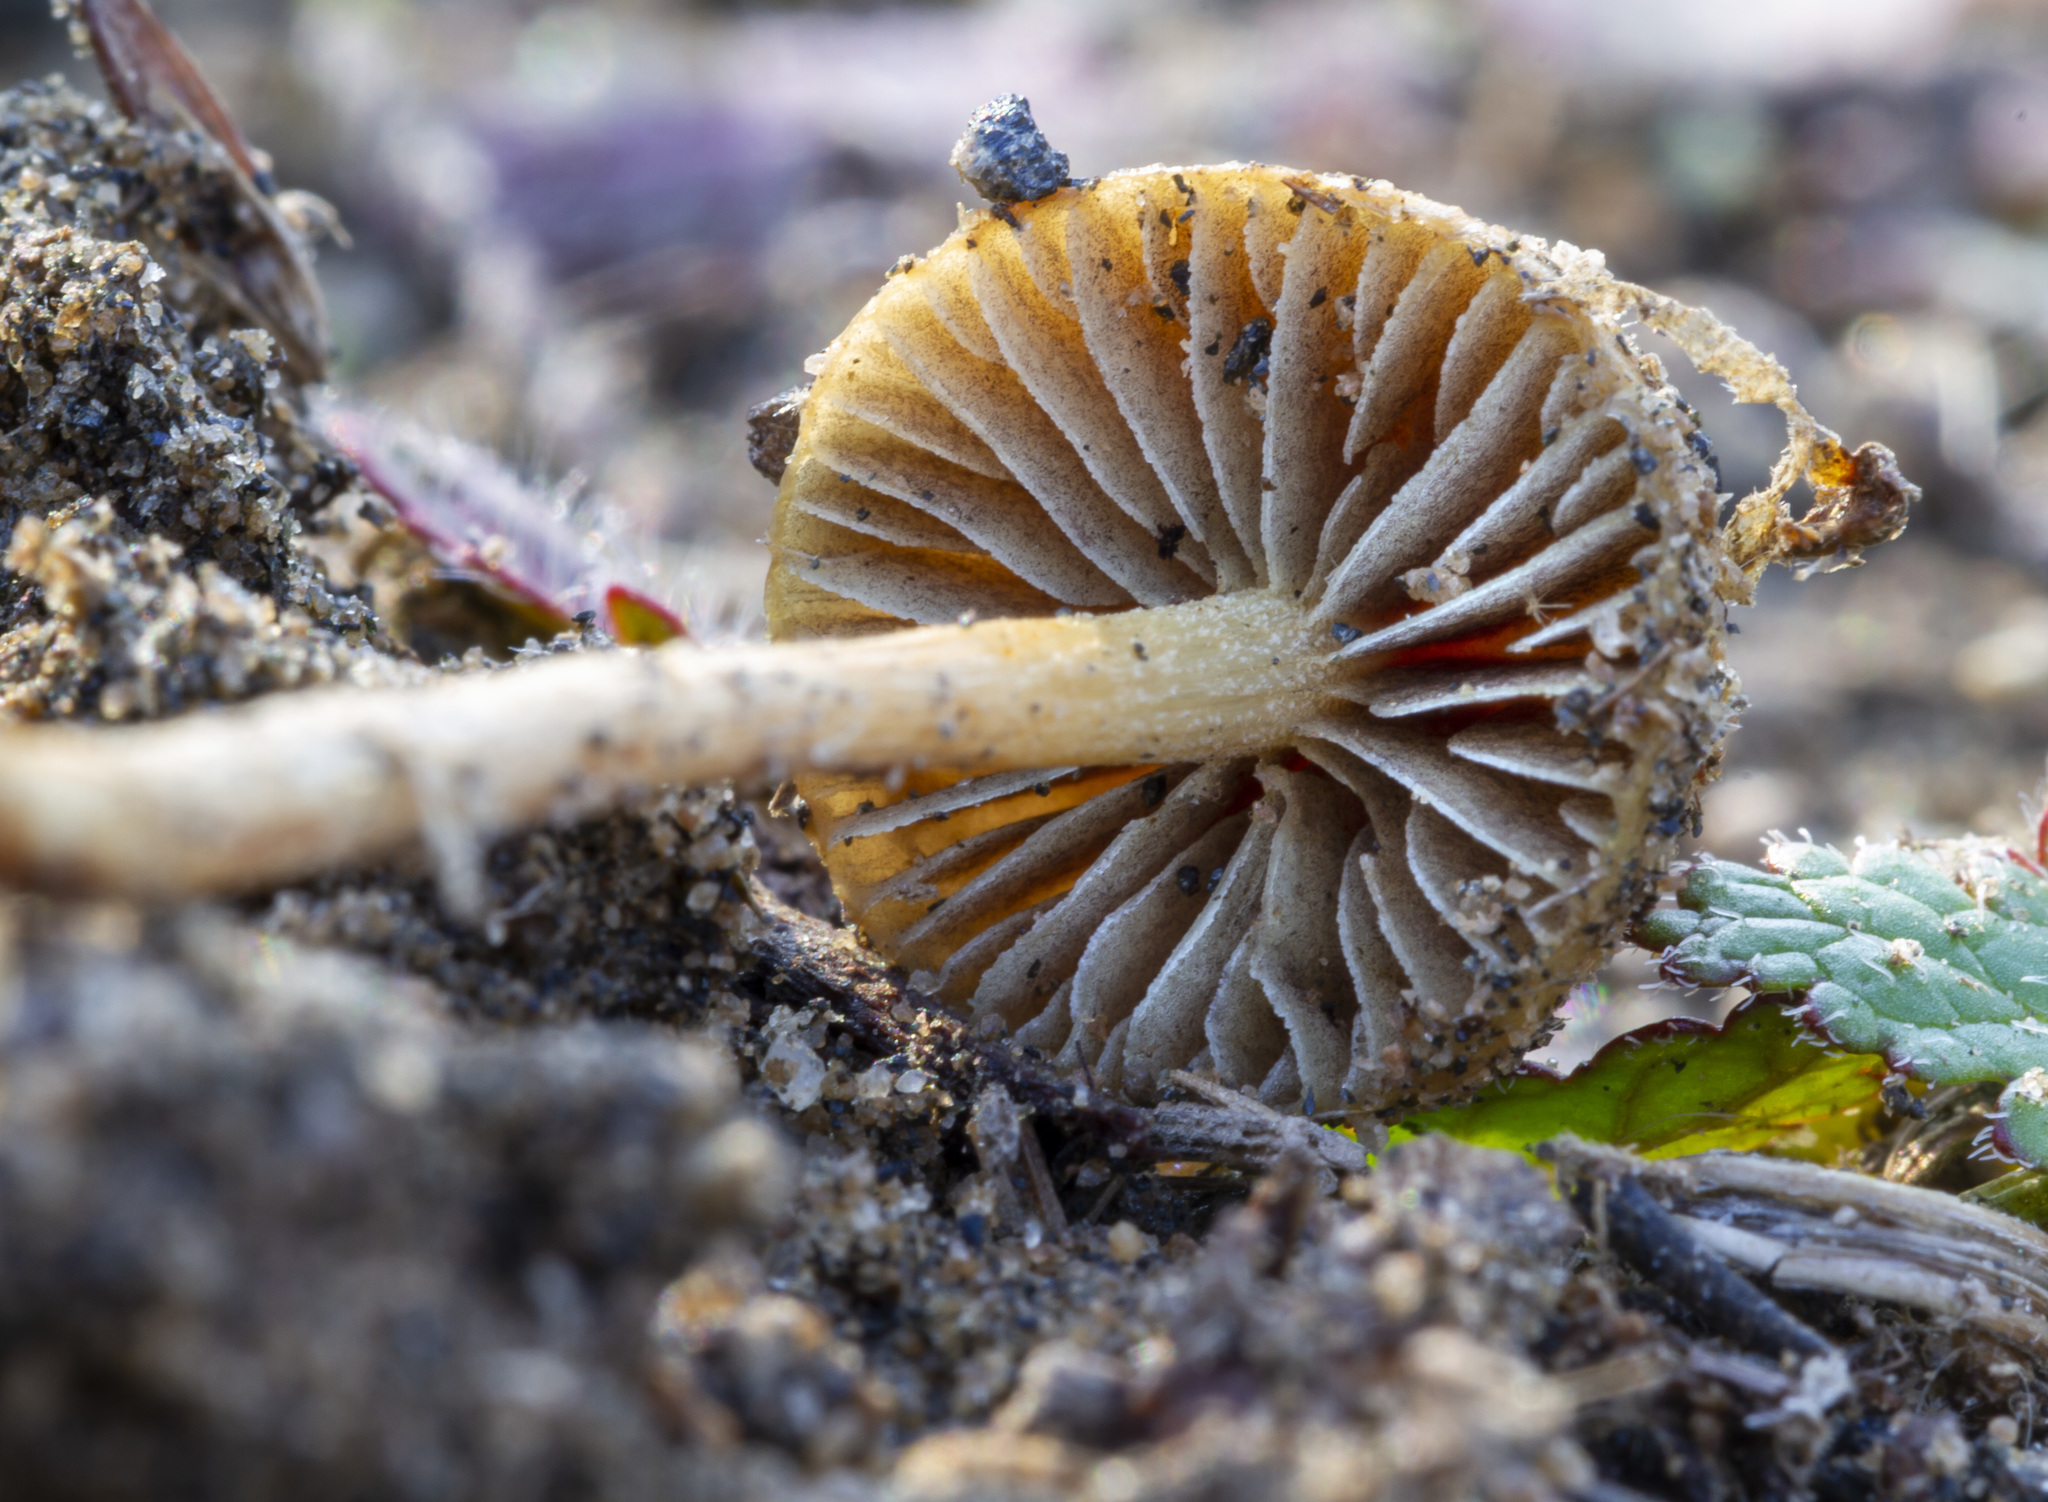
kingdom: Fungi
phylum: Basidiomycota
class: Agaricomycetes
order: Agaricales
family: Strophariaceae
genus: Agrocybe
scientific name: Agrocybe pediades
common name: Common fieldcap
